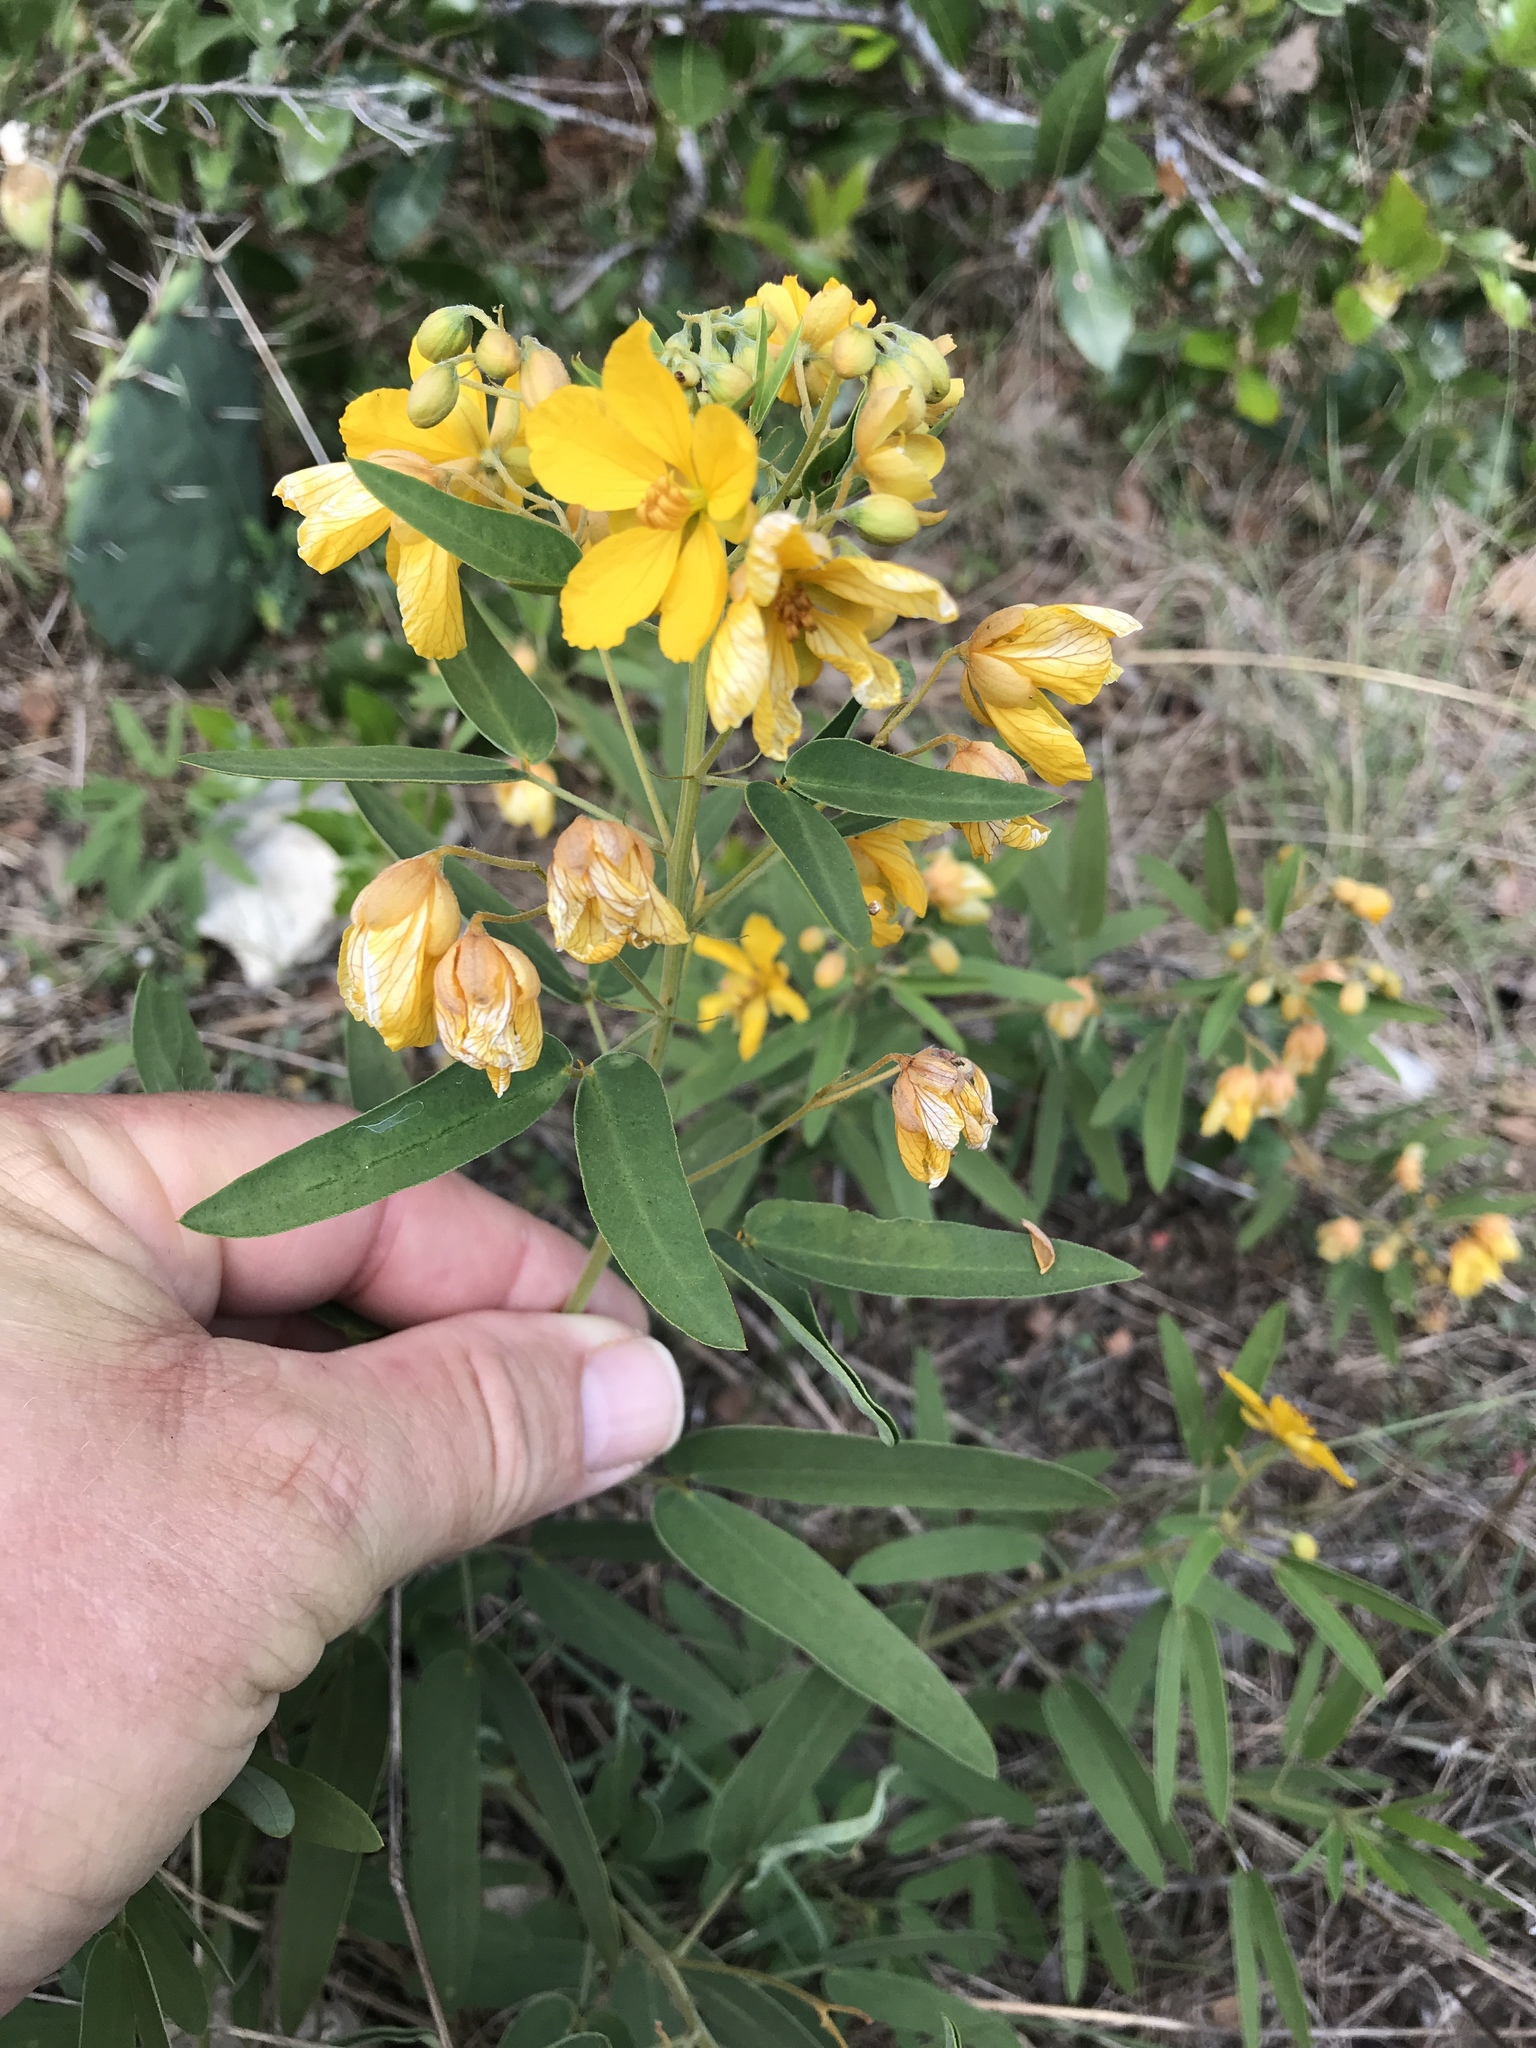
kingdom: Plantae
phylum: Tracheophyta
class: Magnoliopsida
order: Fabales
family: Fabaceae
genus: Senna
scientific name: Senna roemeriana
